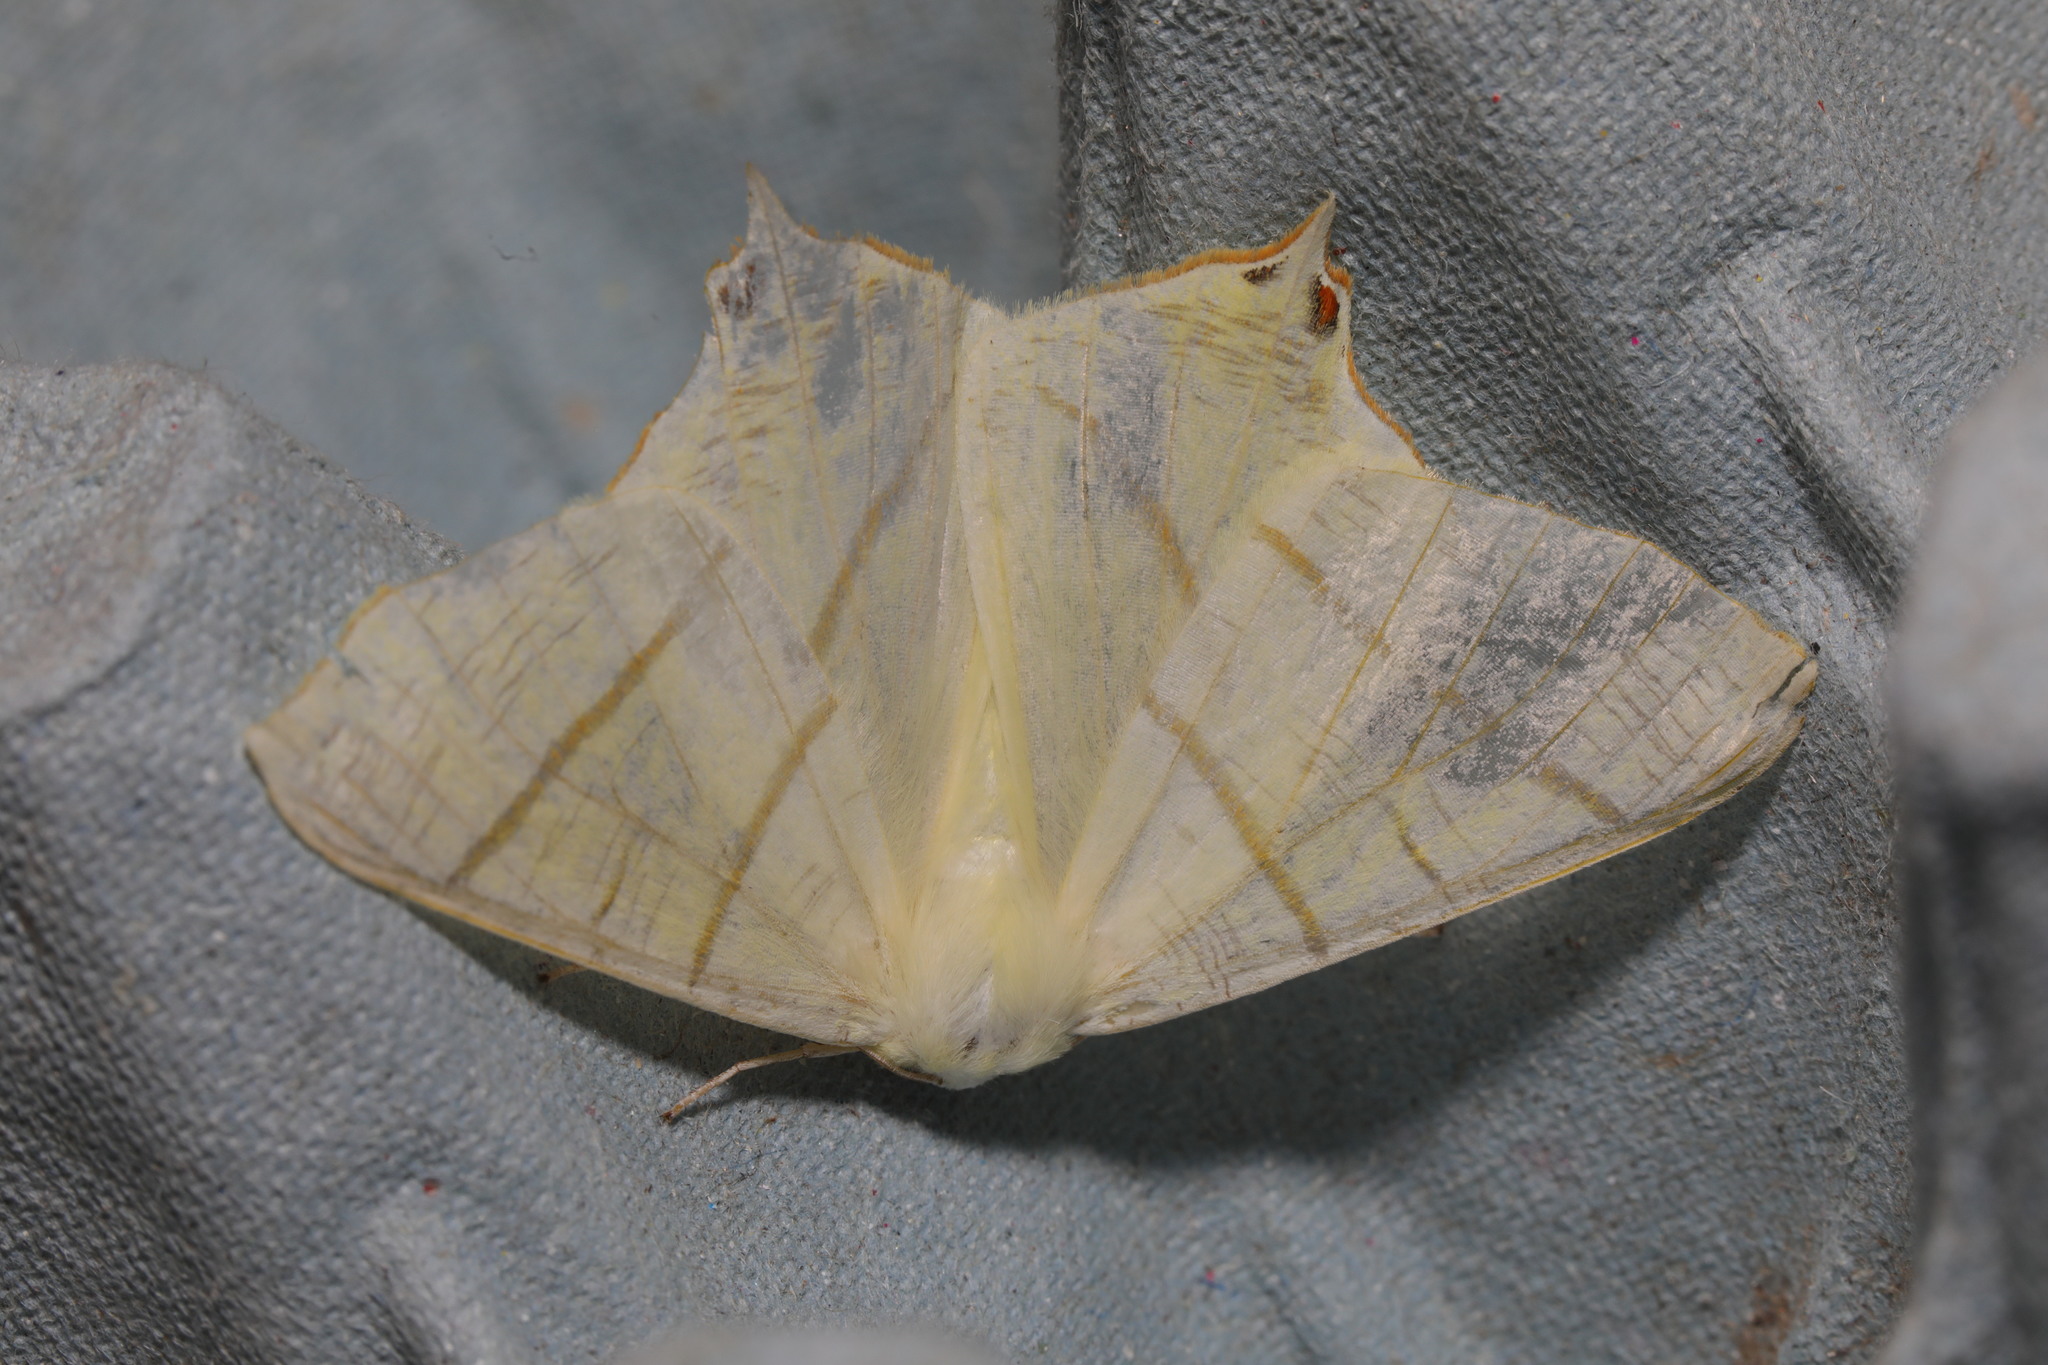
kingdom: Animalia
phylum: Arthropoda
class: Insecta
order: Lepidoptera
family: Geometridae
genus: Ourapteryx
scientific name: Ourapteryx sambucaria
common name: Swallow-tailed moth
